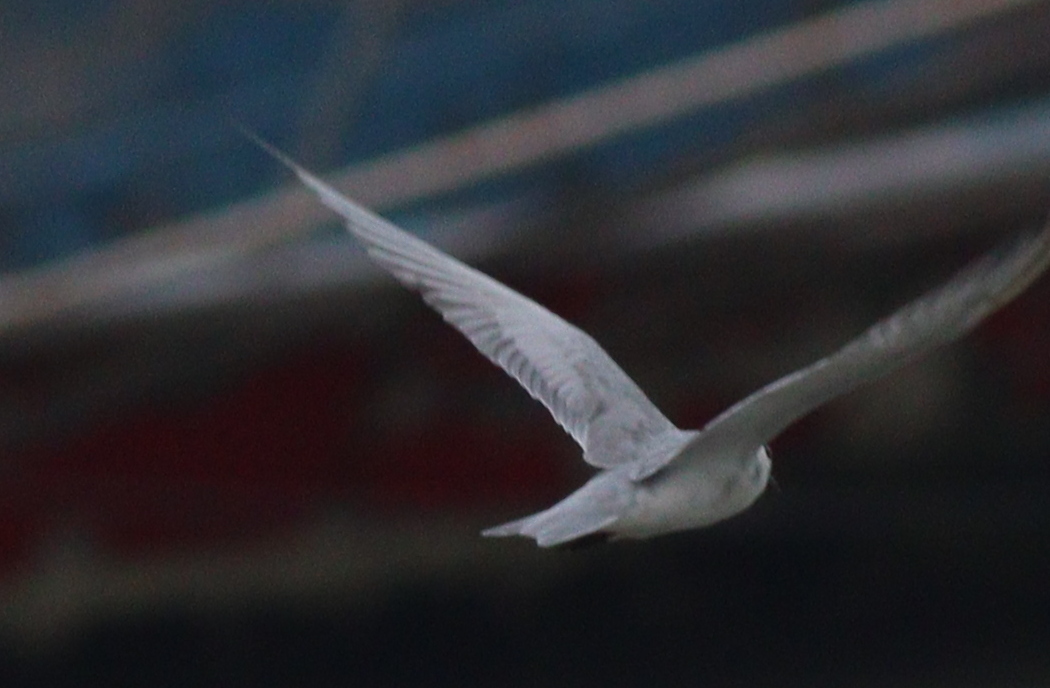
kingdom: Animalia
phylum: Chordata
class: Aves
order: Charadriiformes
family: Laridae
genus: Chlidonias
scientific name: Chlidonias hybrida
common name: Whiskered tern
